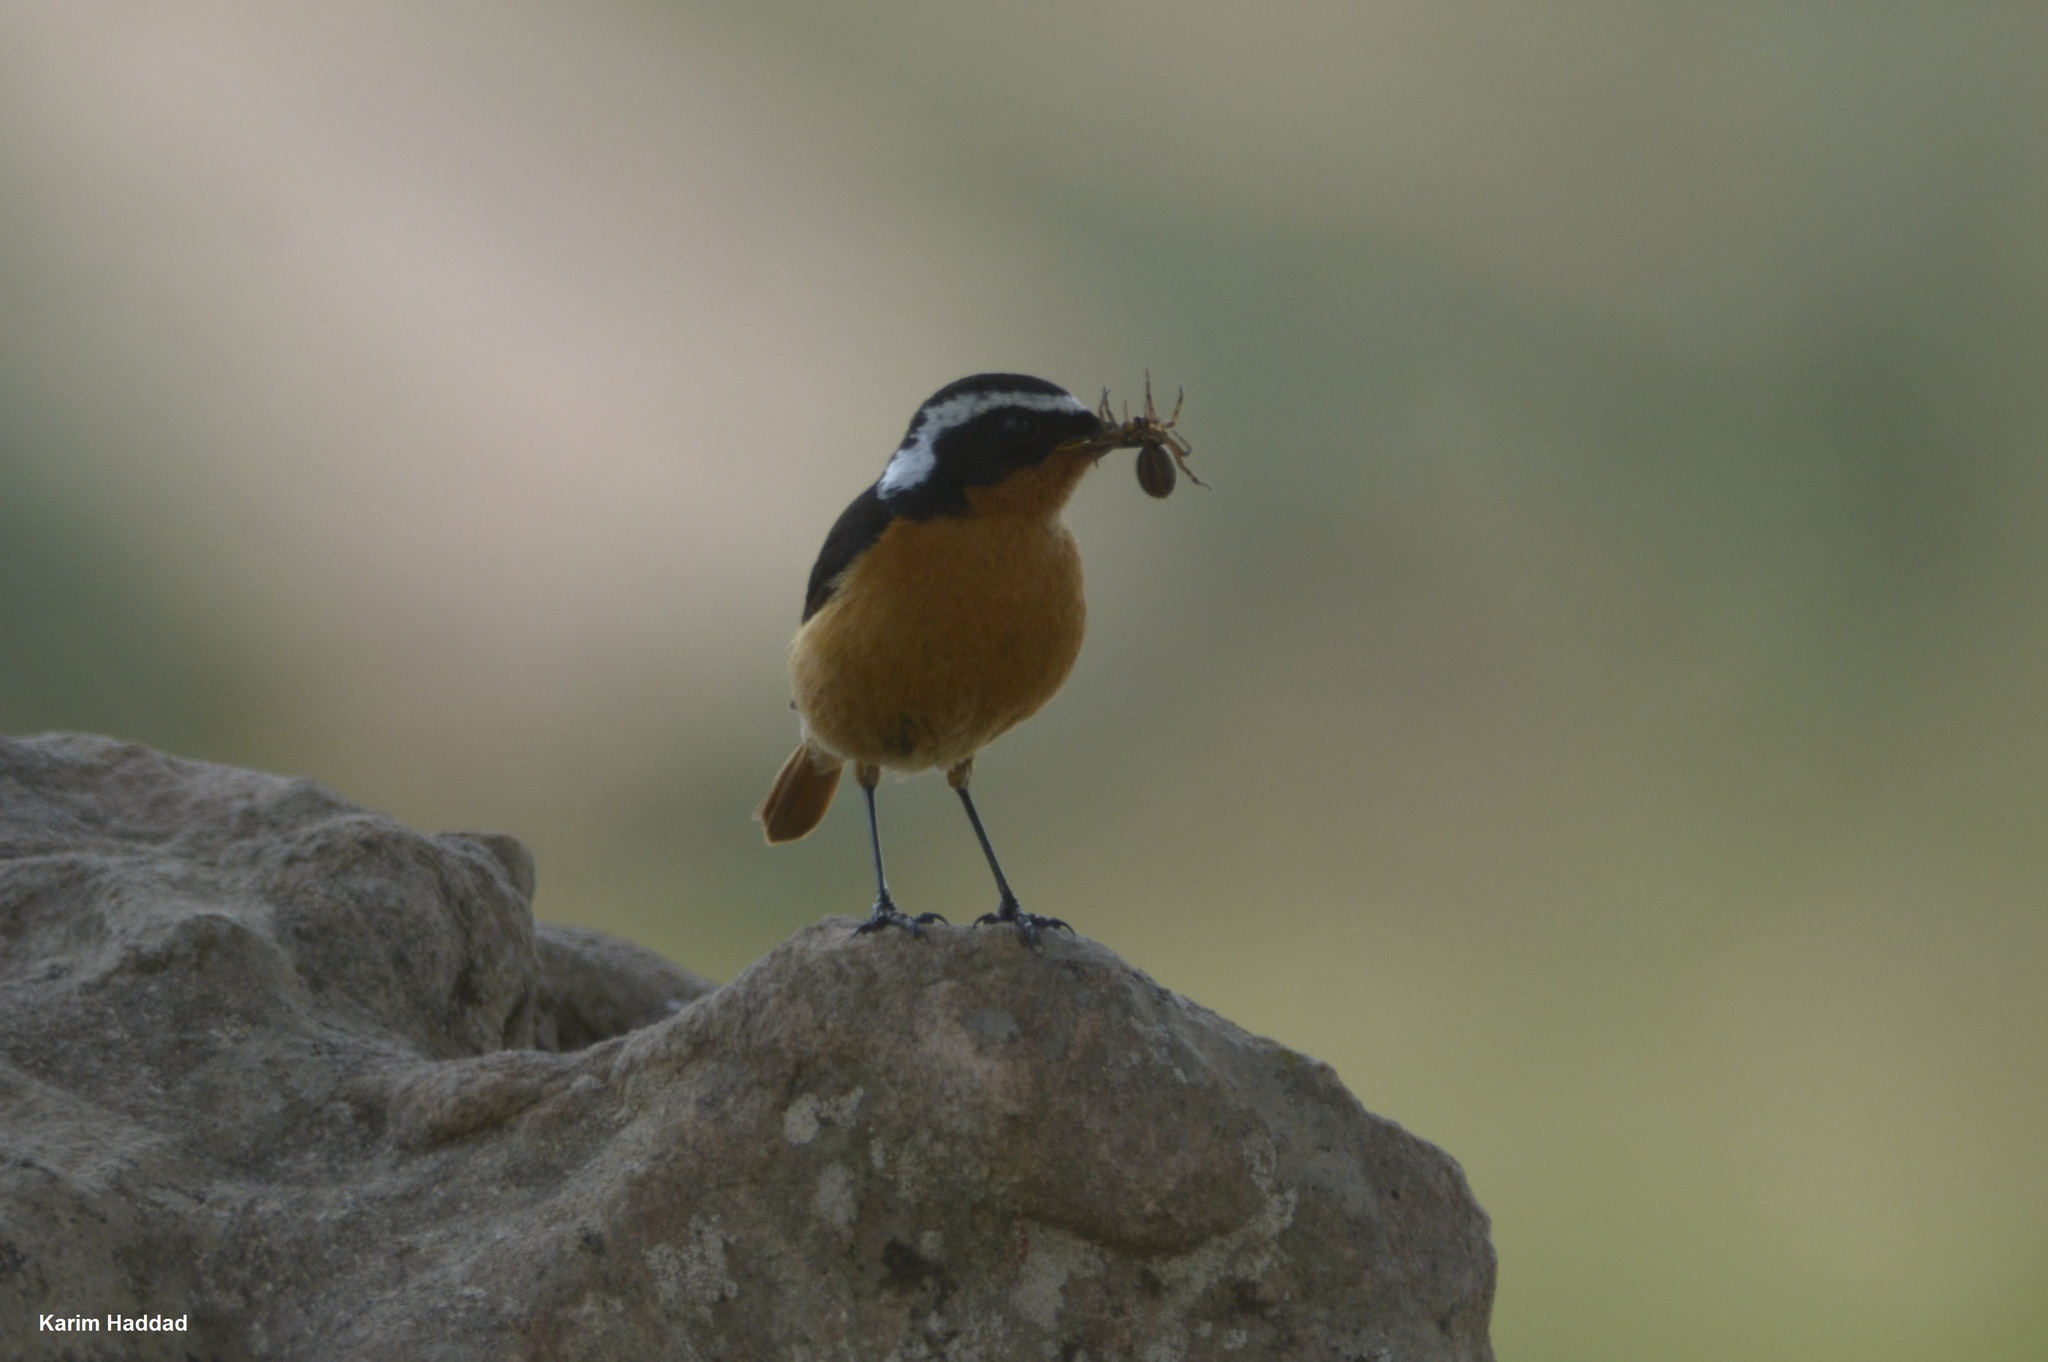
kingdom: Animalia
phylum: Chordata
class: Aves
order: Passeriformes
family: Muscicapidae
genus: Phoenicurus
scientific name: Phoenicurus moussieri
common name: Moussier's redstart
